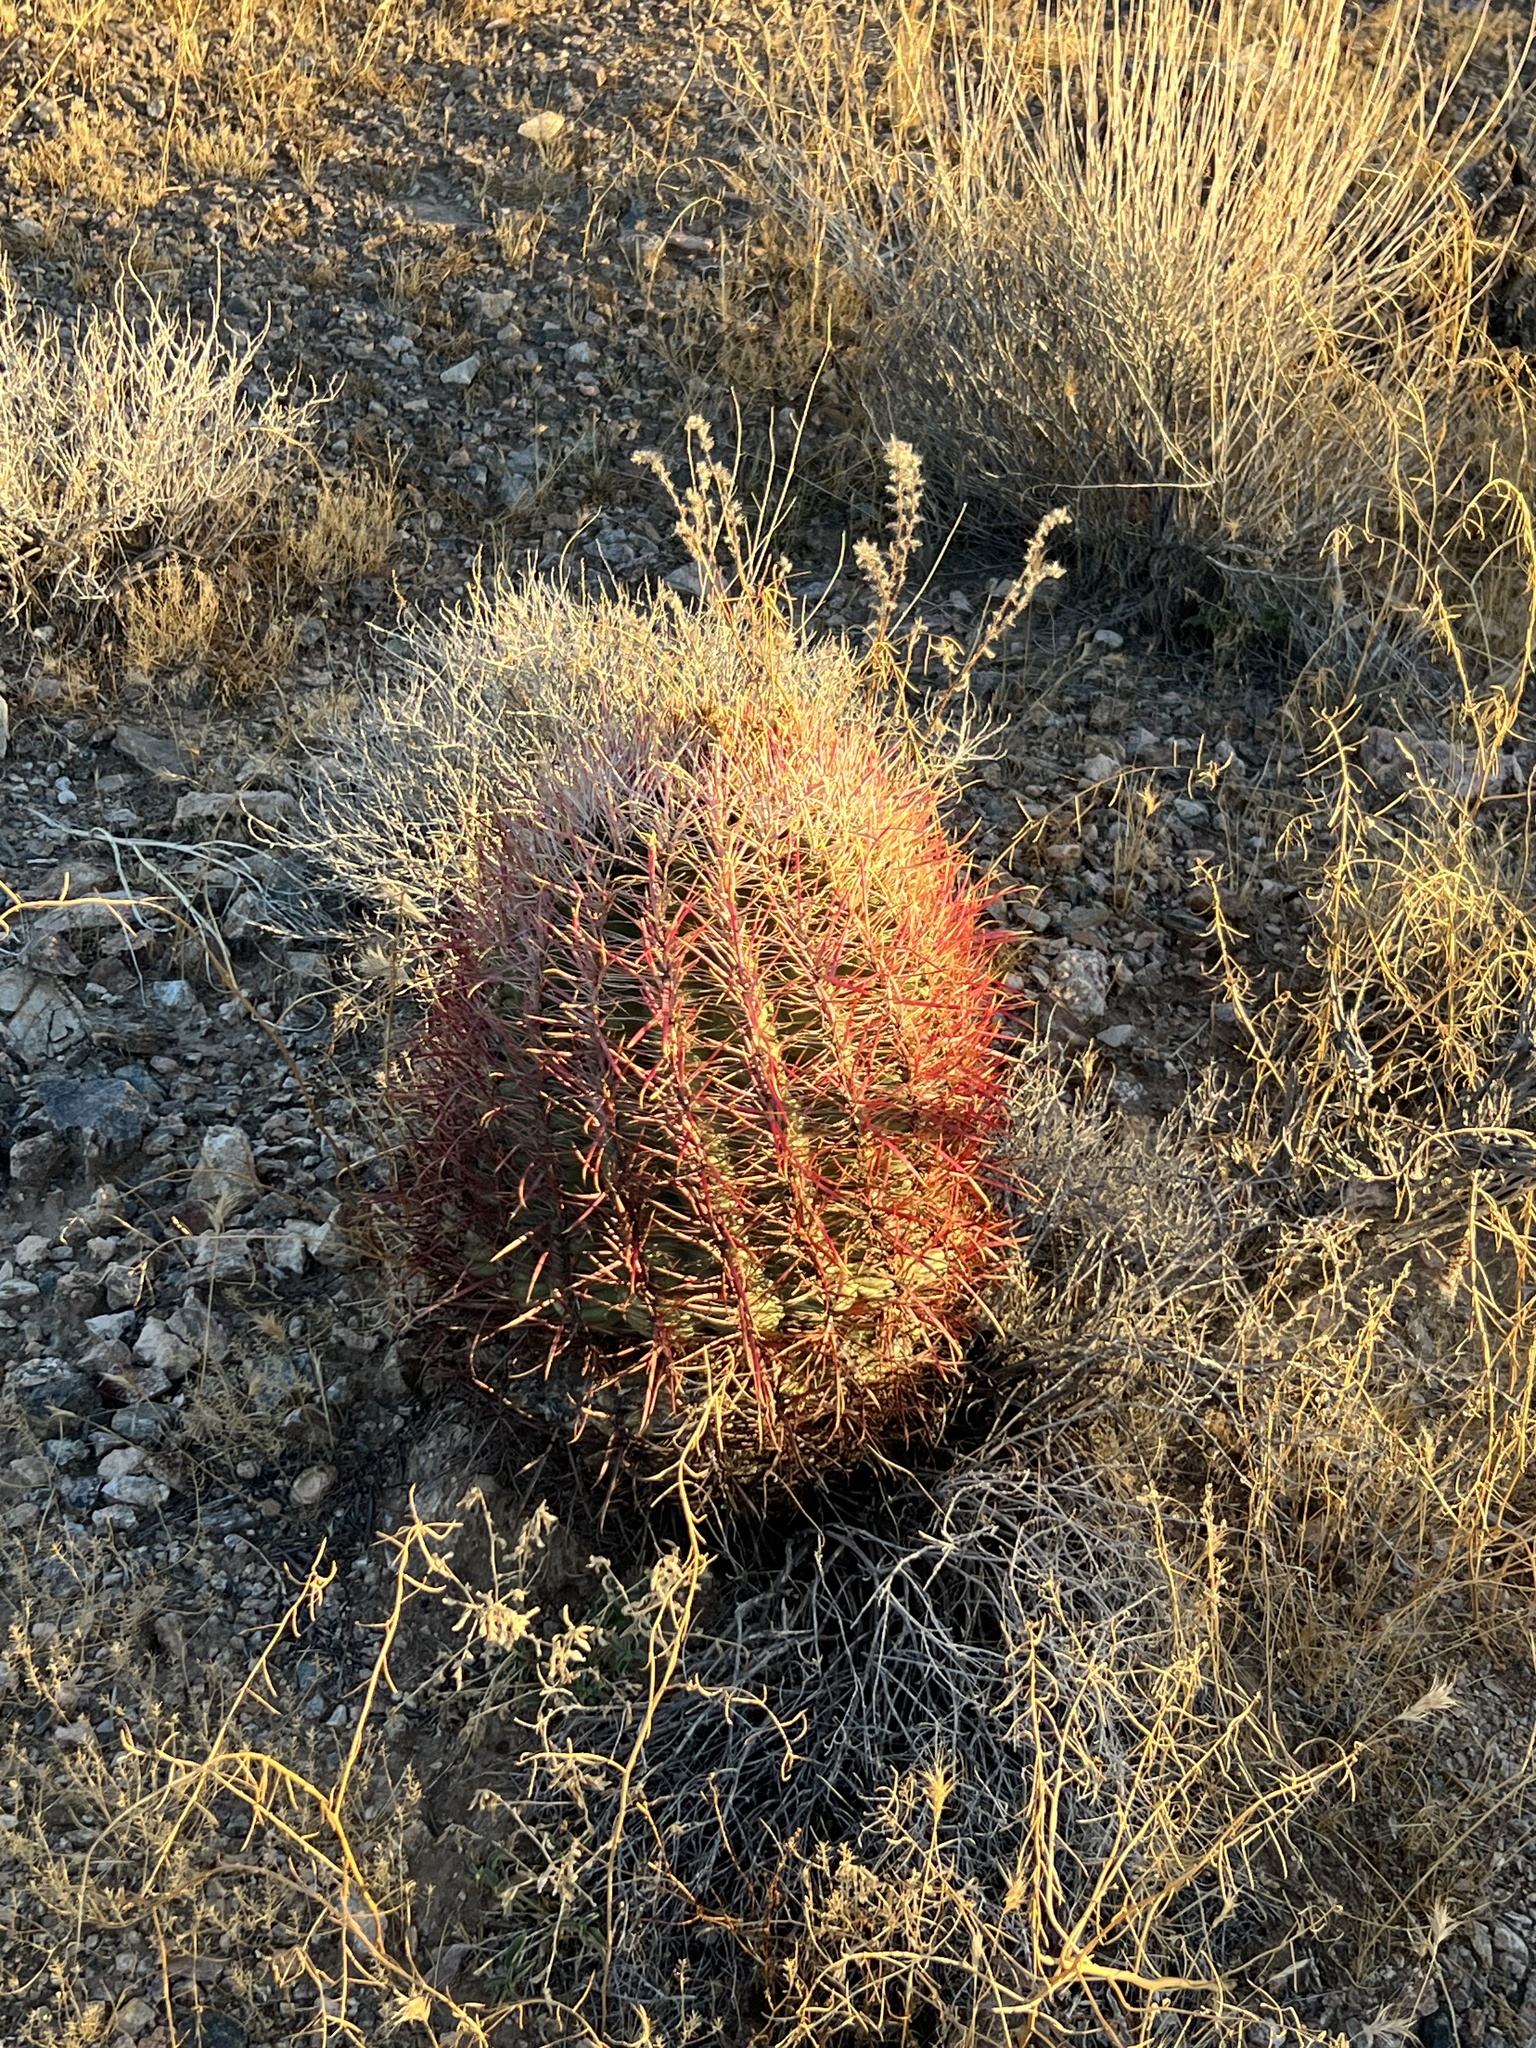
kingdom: Plantae
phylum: Tracheophyta
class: Magnoliopsida
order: Caryophyllales
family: Cactaceae
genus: Ferocactus
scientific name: Ferocactus cylindraceus
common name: California barrel cactus
